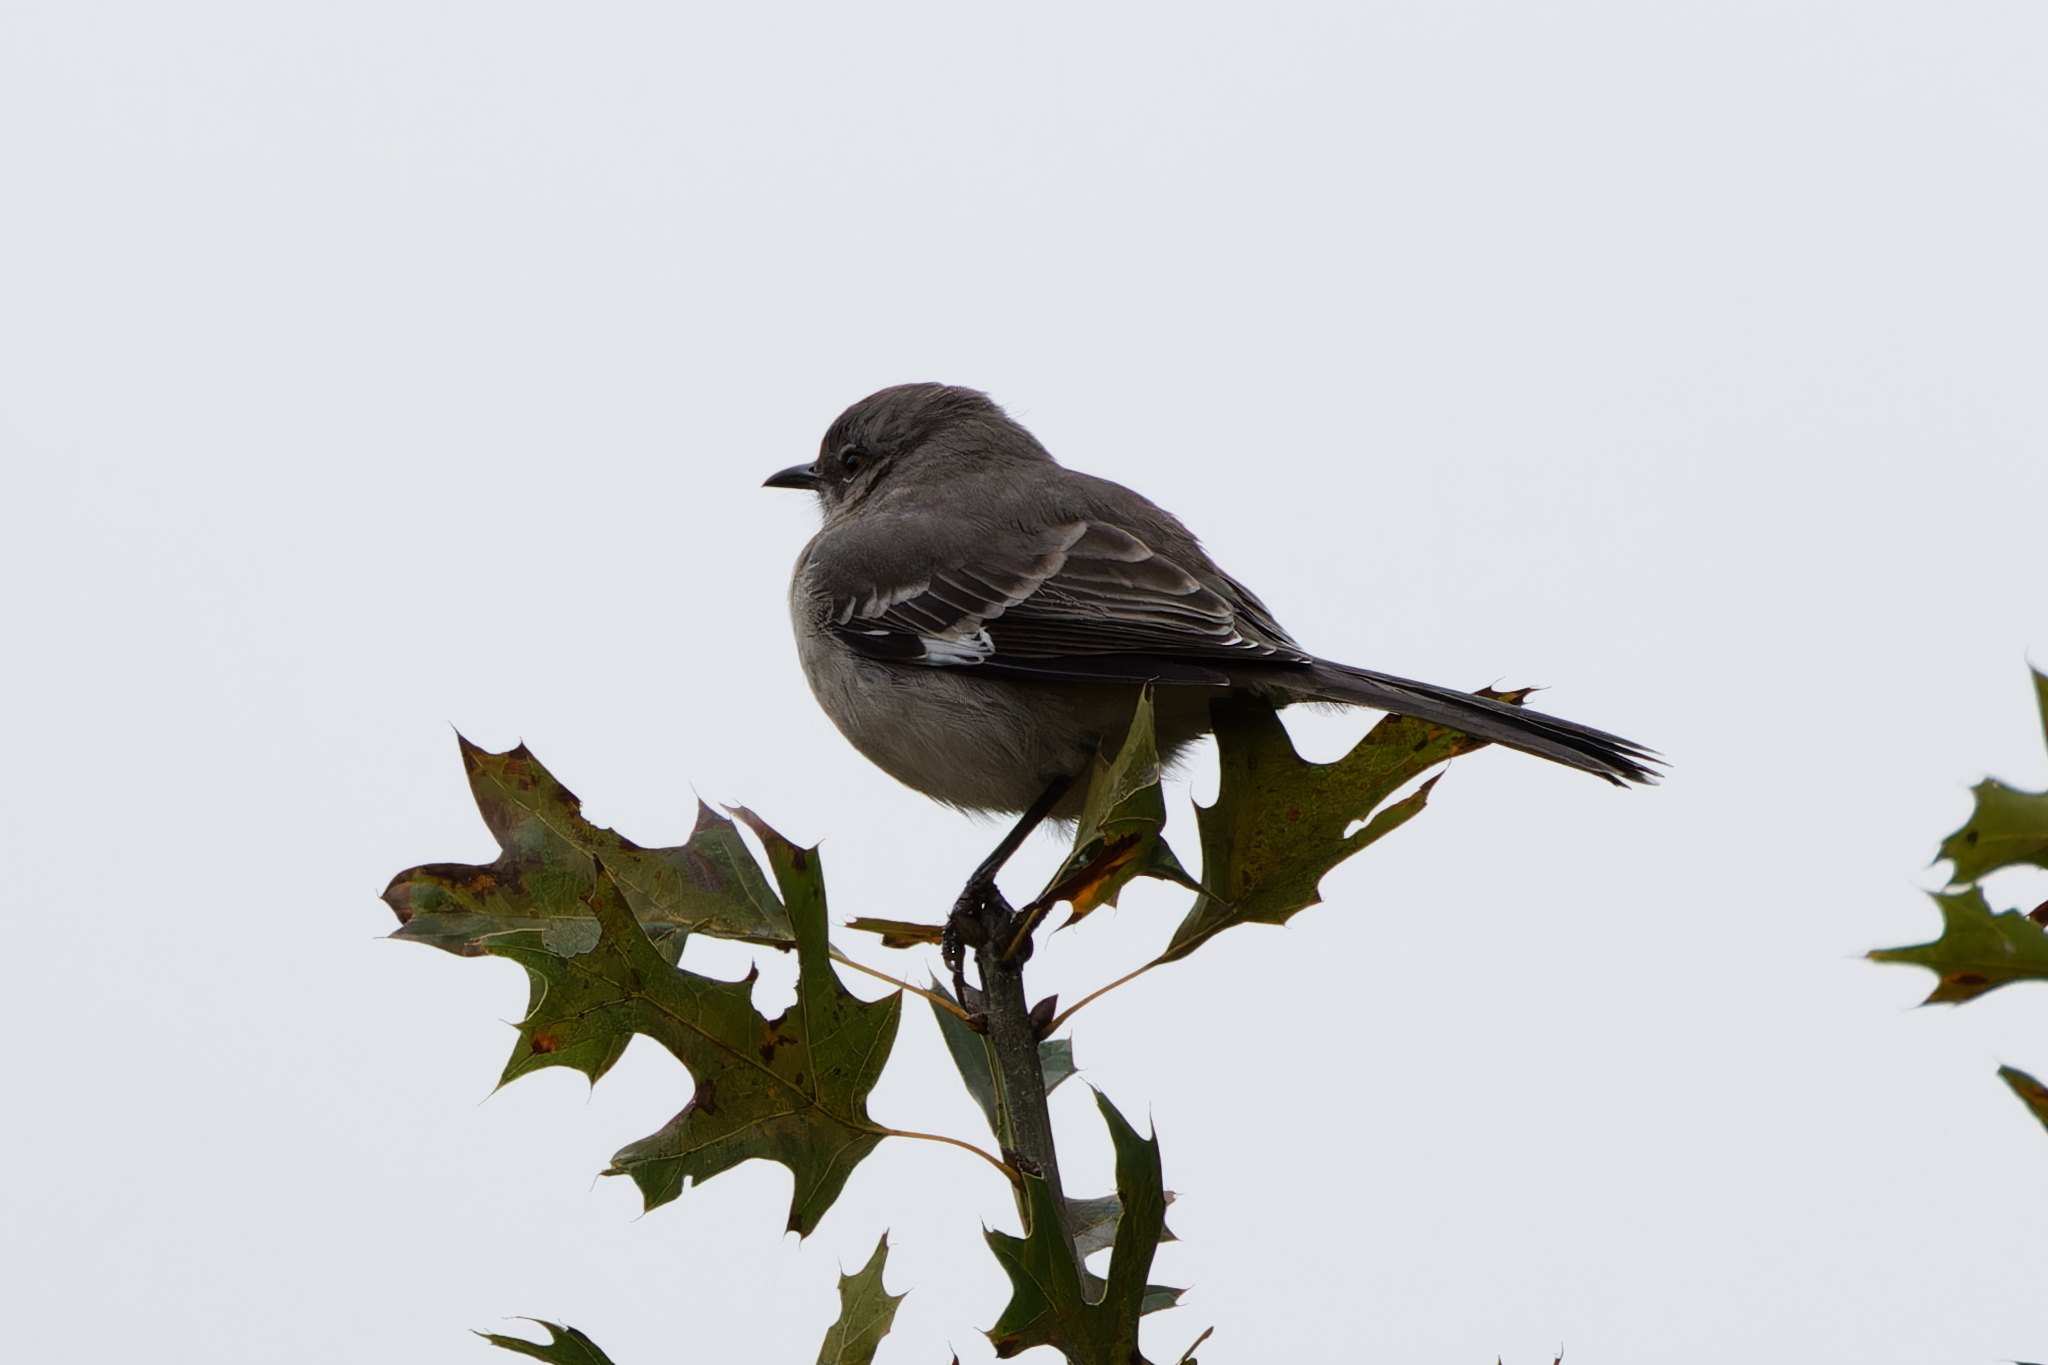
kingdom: Animalia
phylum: Chordata
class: Aves
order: Passeriformes
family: Mimidae
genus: Mimus
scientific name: Mimus polyglottos
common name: Northern mockingbird
